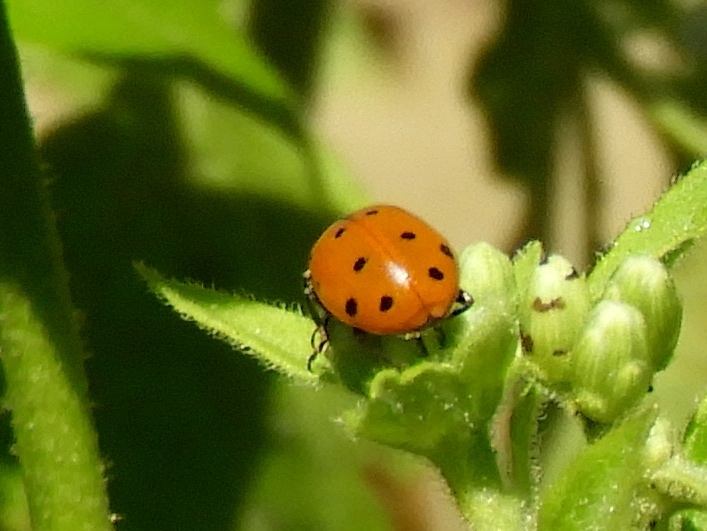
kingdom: Animalia
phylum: Arthropoda
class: Insecta
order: Coleoptera
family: Coccinellidae
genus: Hippodamia
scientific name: Hippodamia
